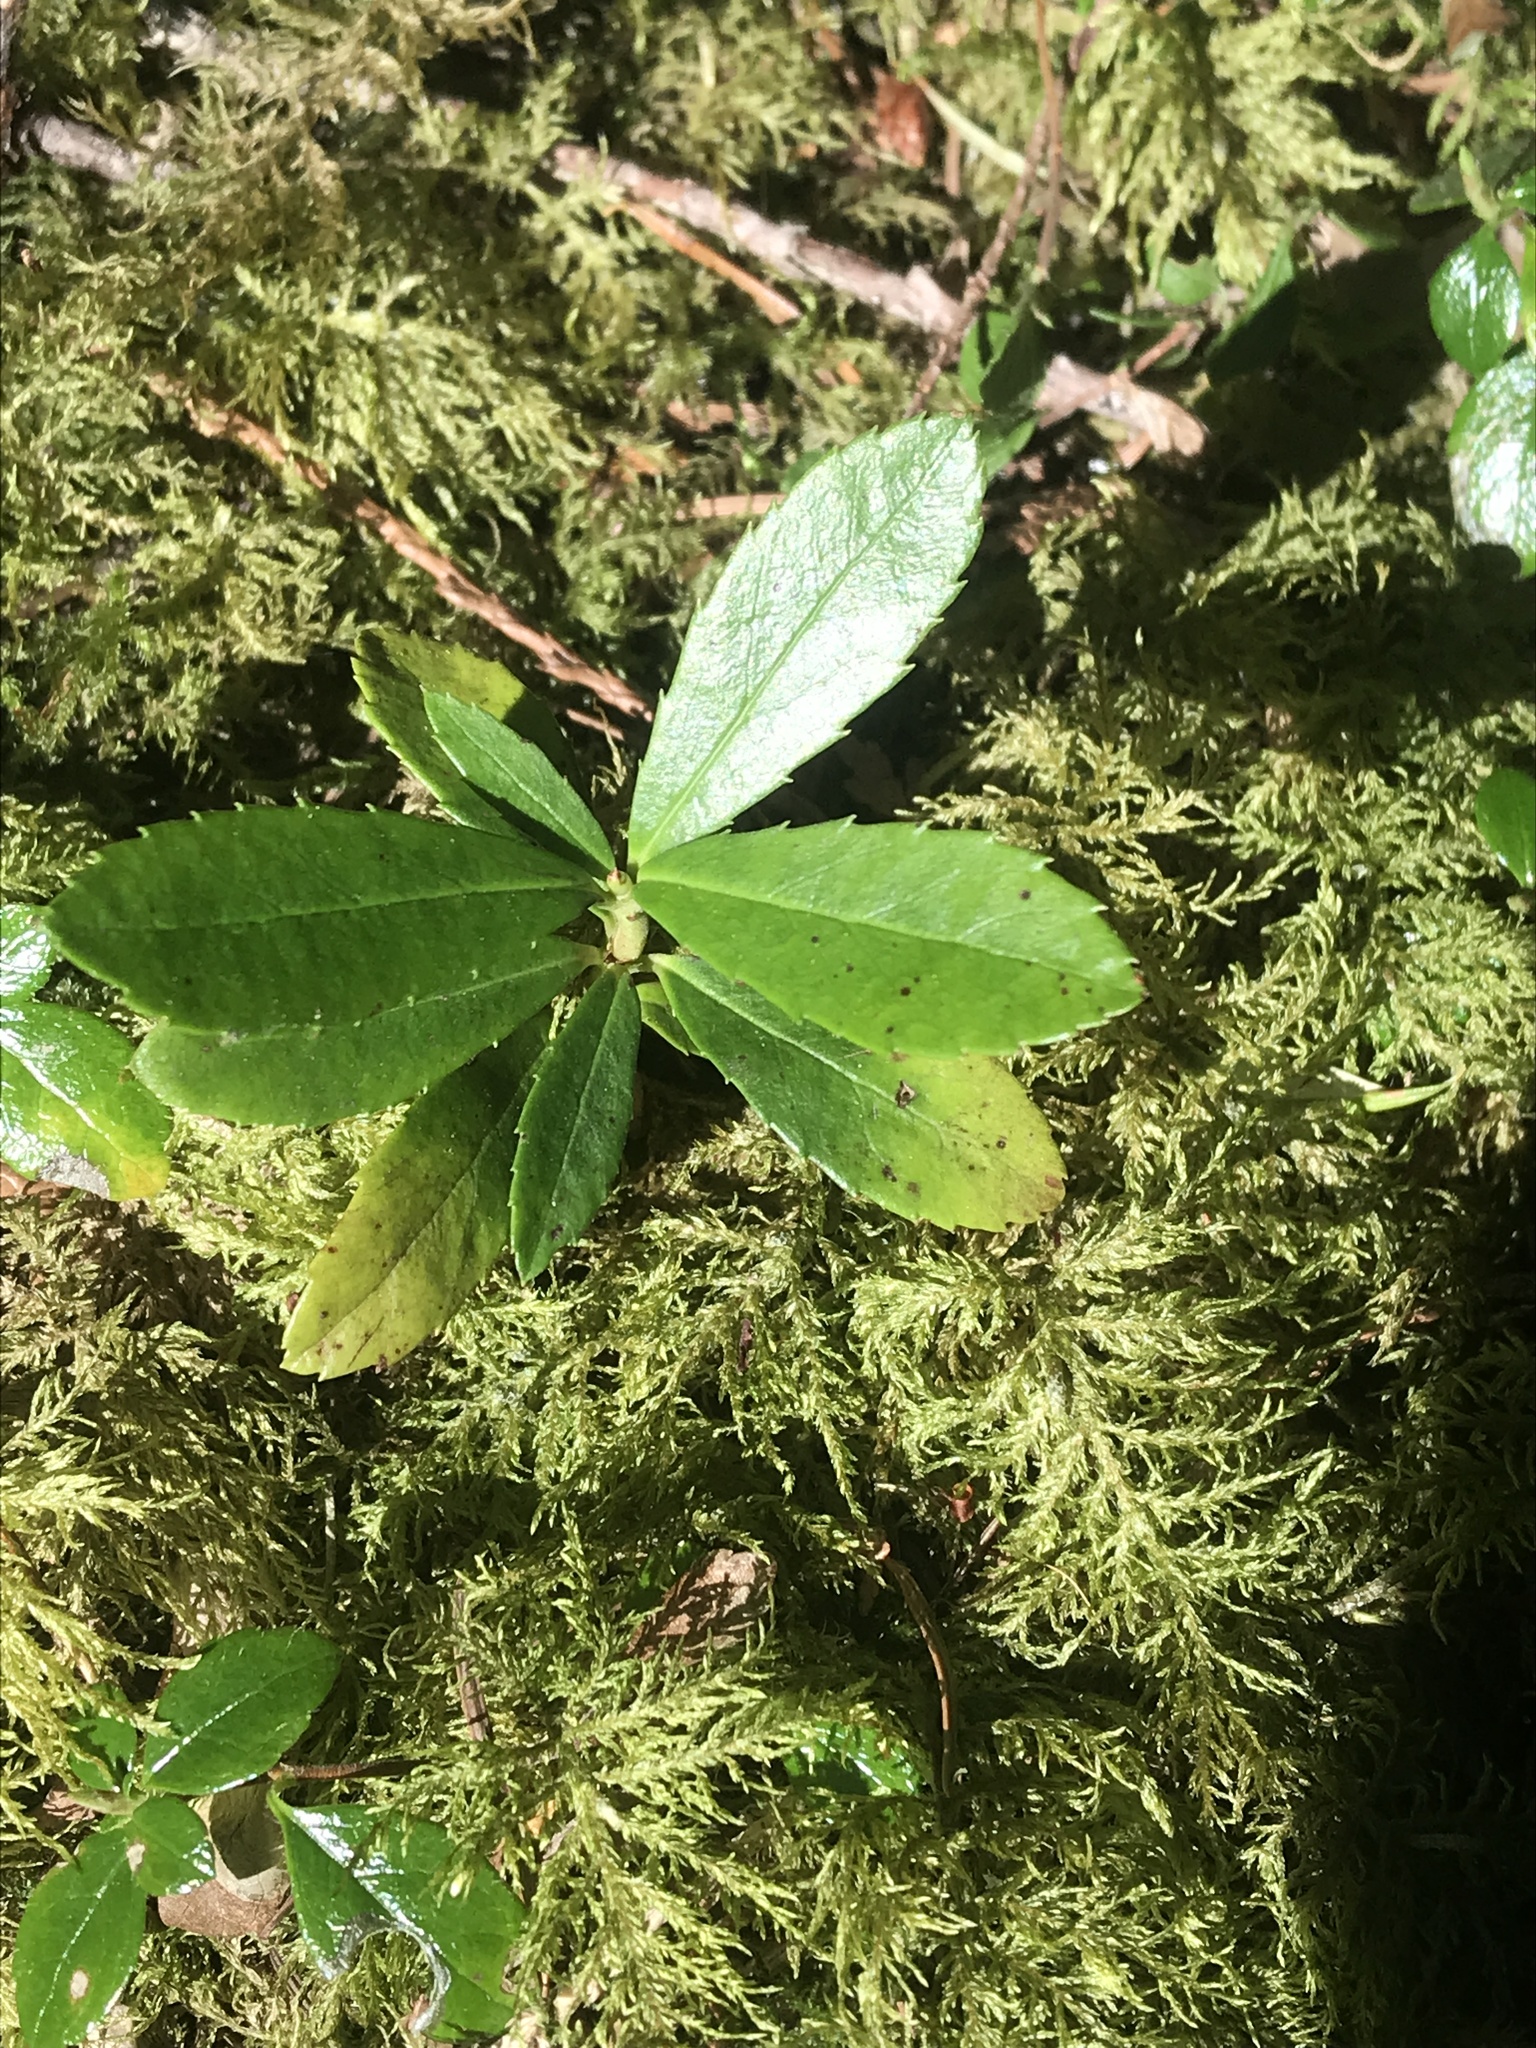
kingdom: Plantae
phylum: Tracheophyta
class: Magnoliopsida
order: Ericales
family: Ericaceae
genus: Chimaphila
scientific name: Chimaphila umbellata
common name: Pipsissewa
